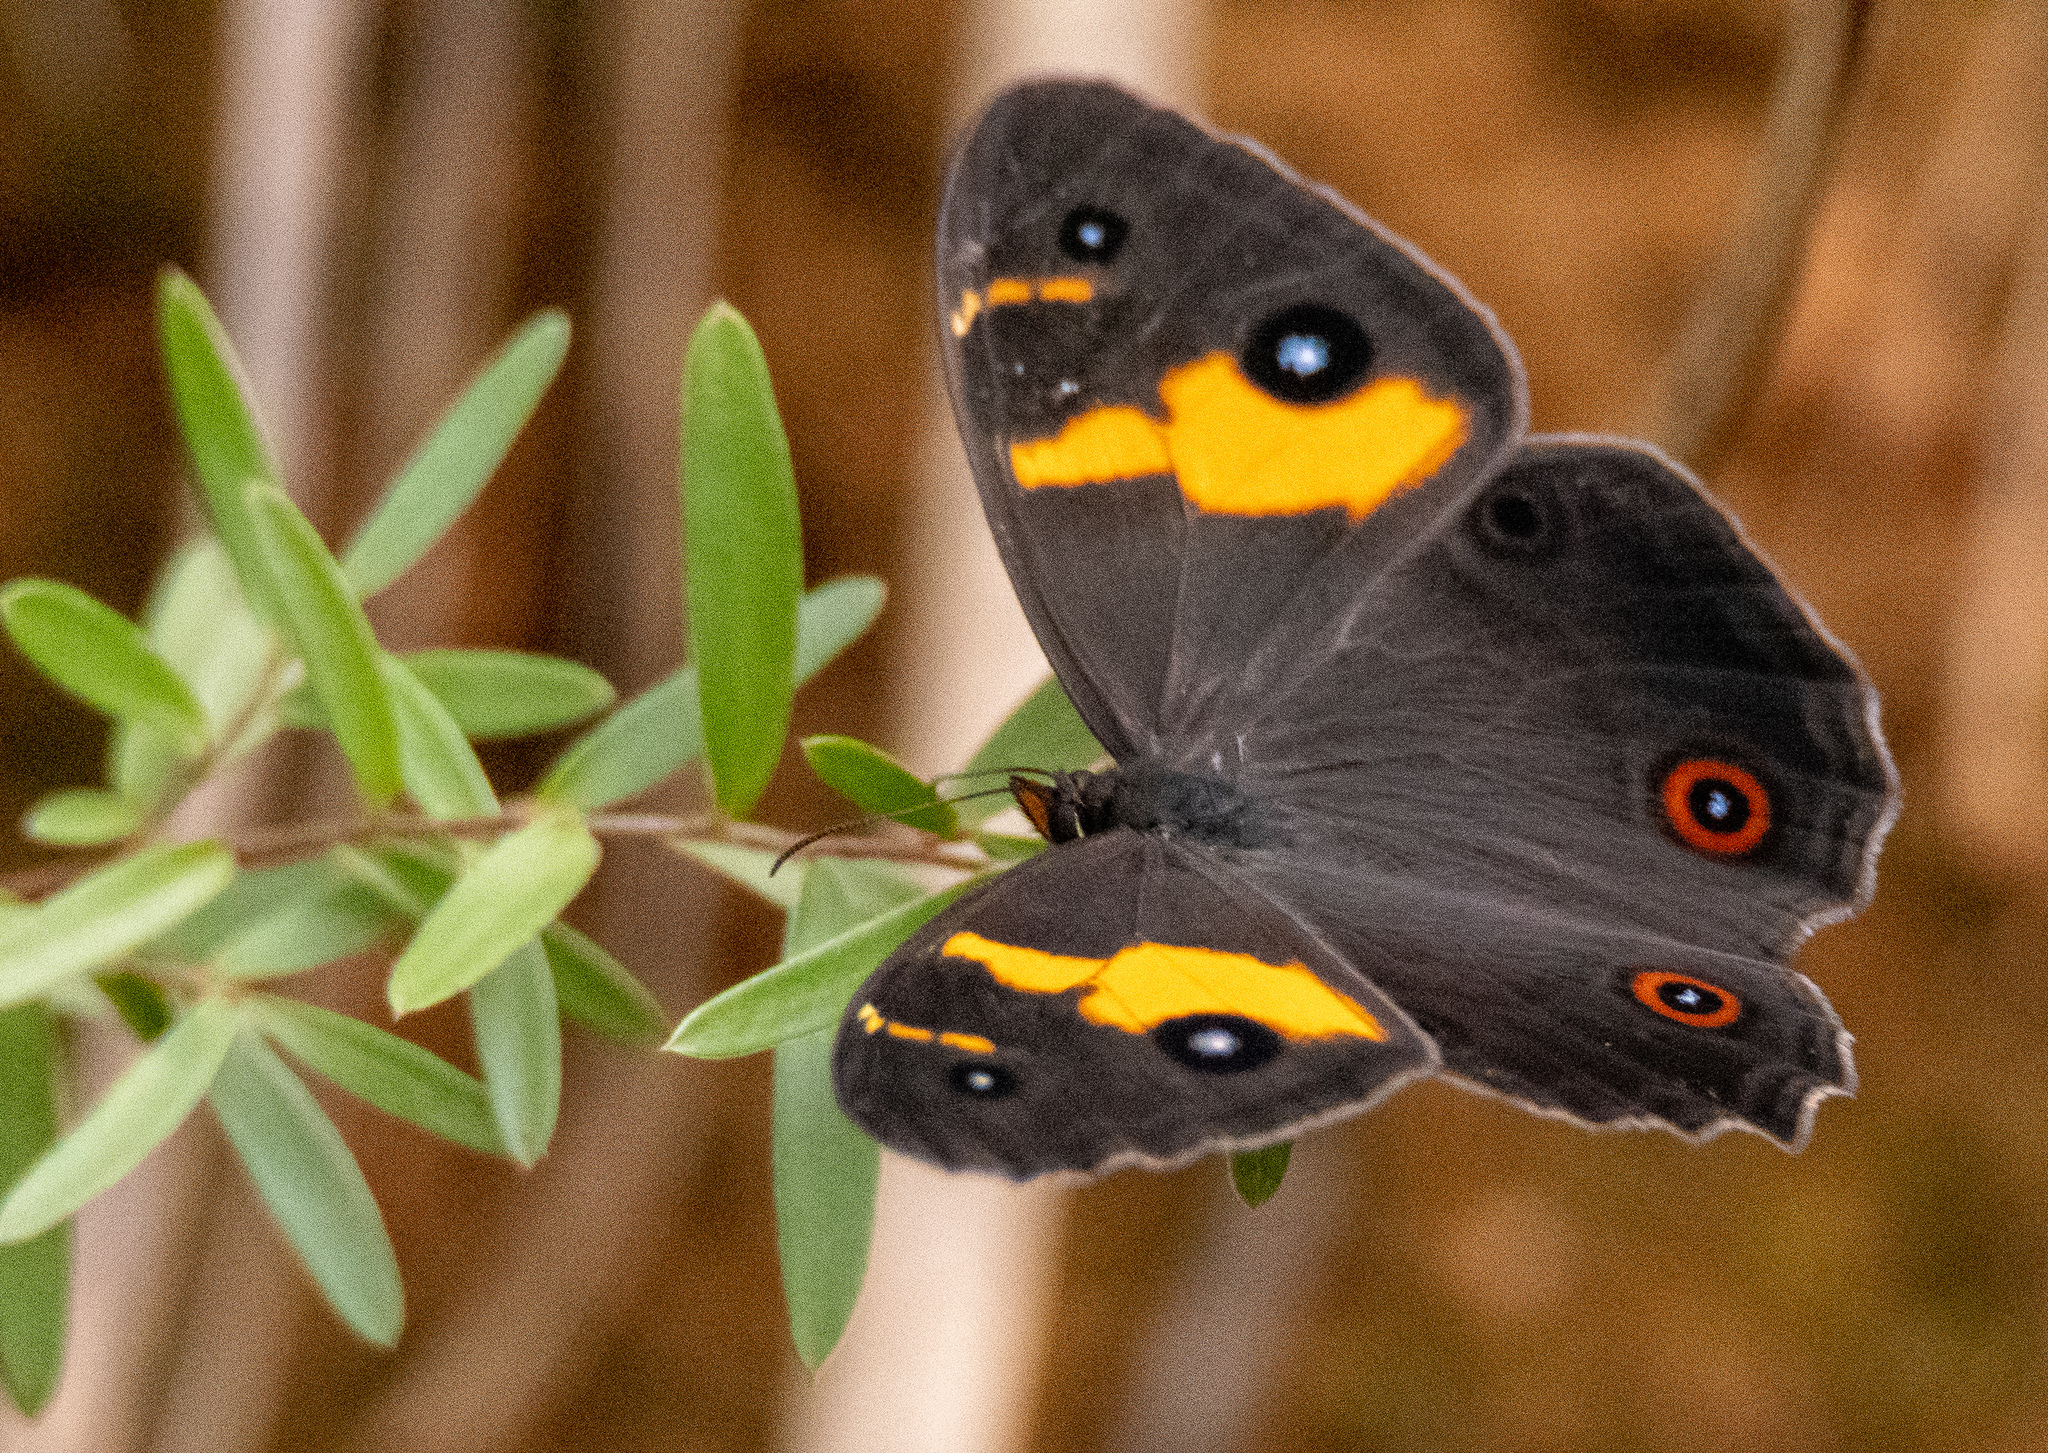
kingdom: Animalia
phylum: Arthropoda
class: Insecta
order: Lepidoptera
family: Nymphalidae
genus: Tisiphone
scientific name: Tisiphone abeona
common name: Swordgrass brown
